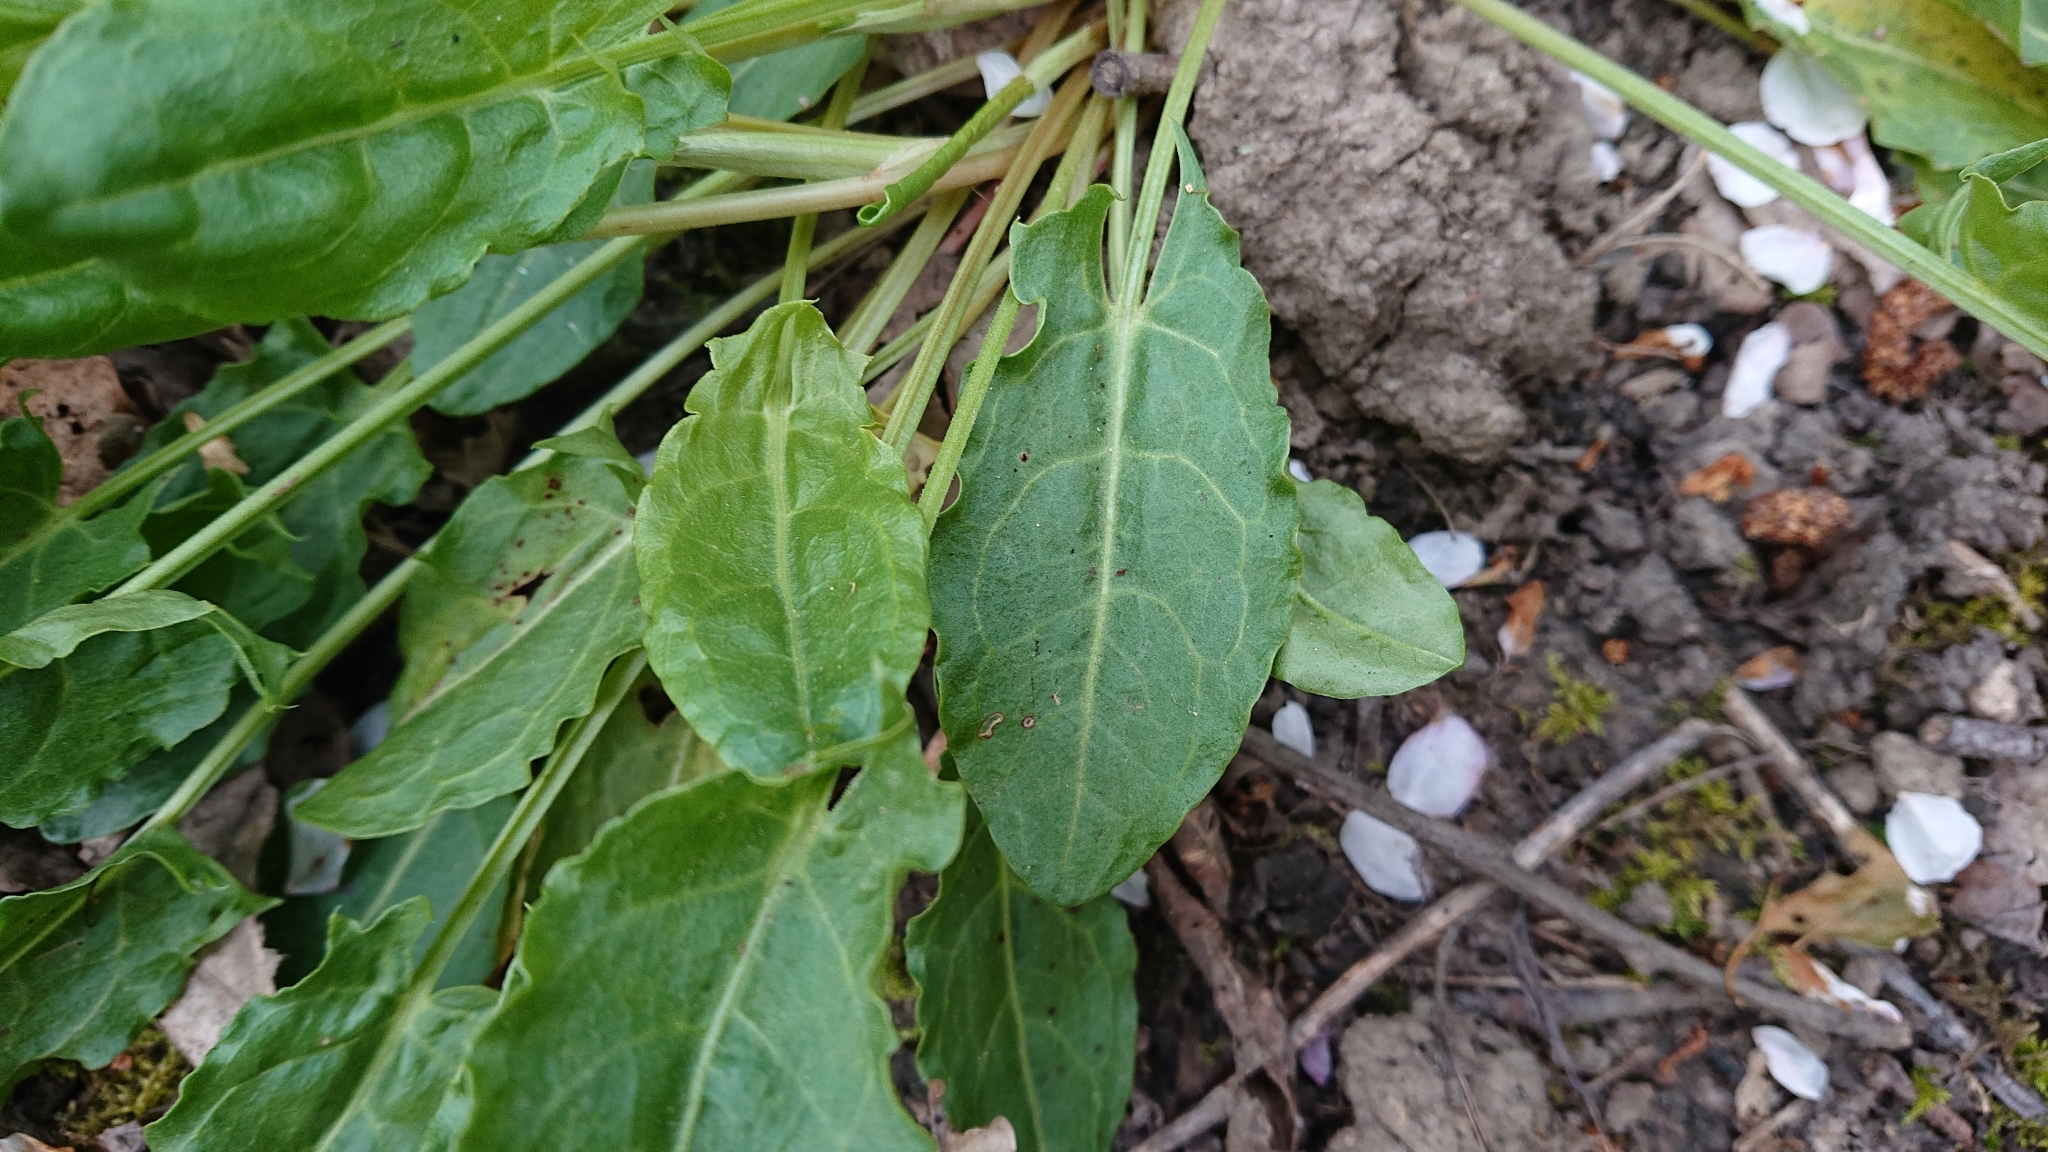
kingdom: Plantae
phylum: Tracheophyta
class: Magnoliopsida
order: Caryophyllales
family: Polygonaceae
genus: Rumex
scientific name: Rumex acetosa
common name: Garden sorrel
